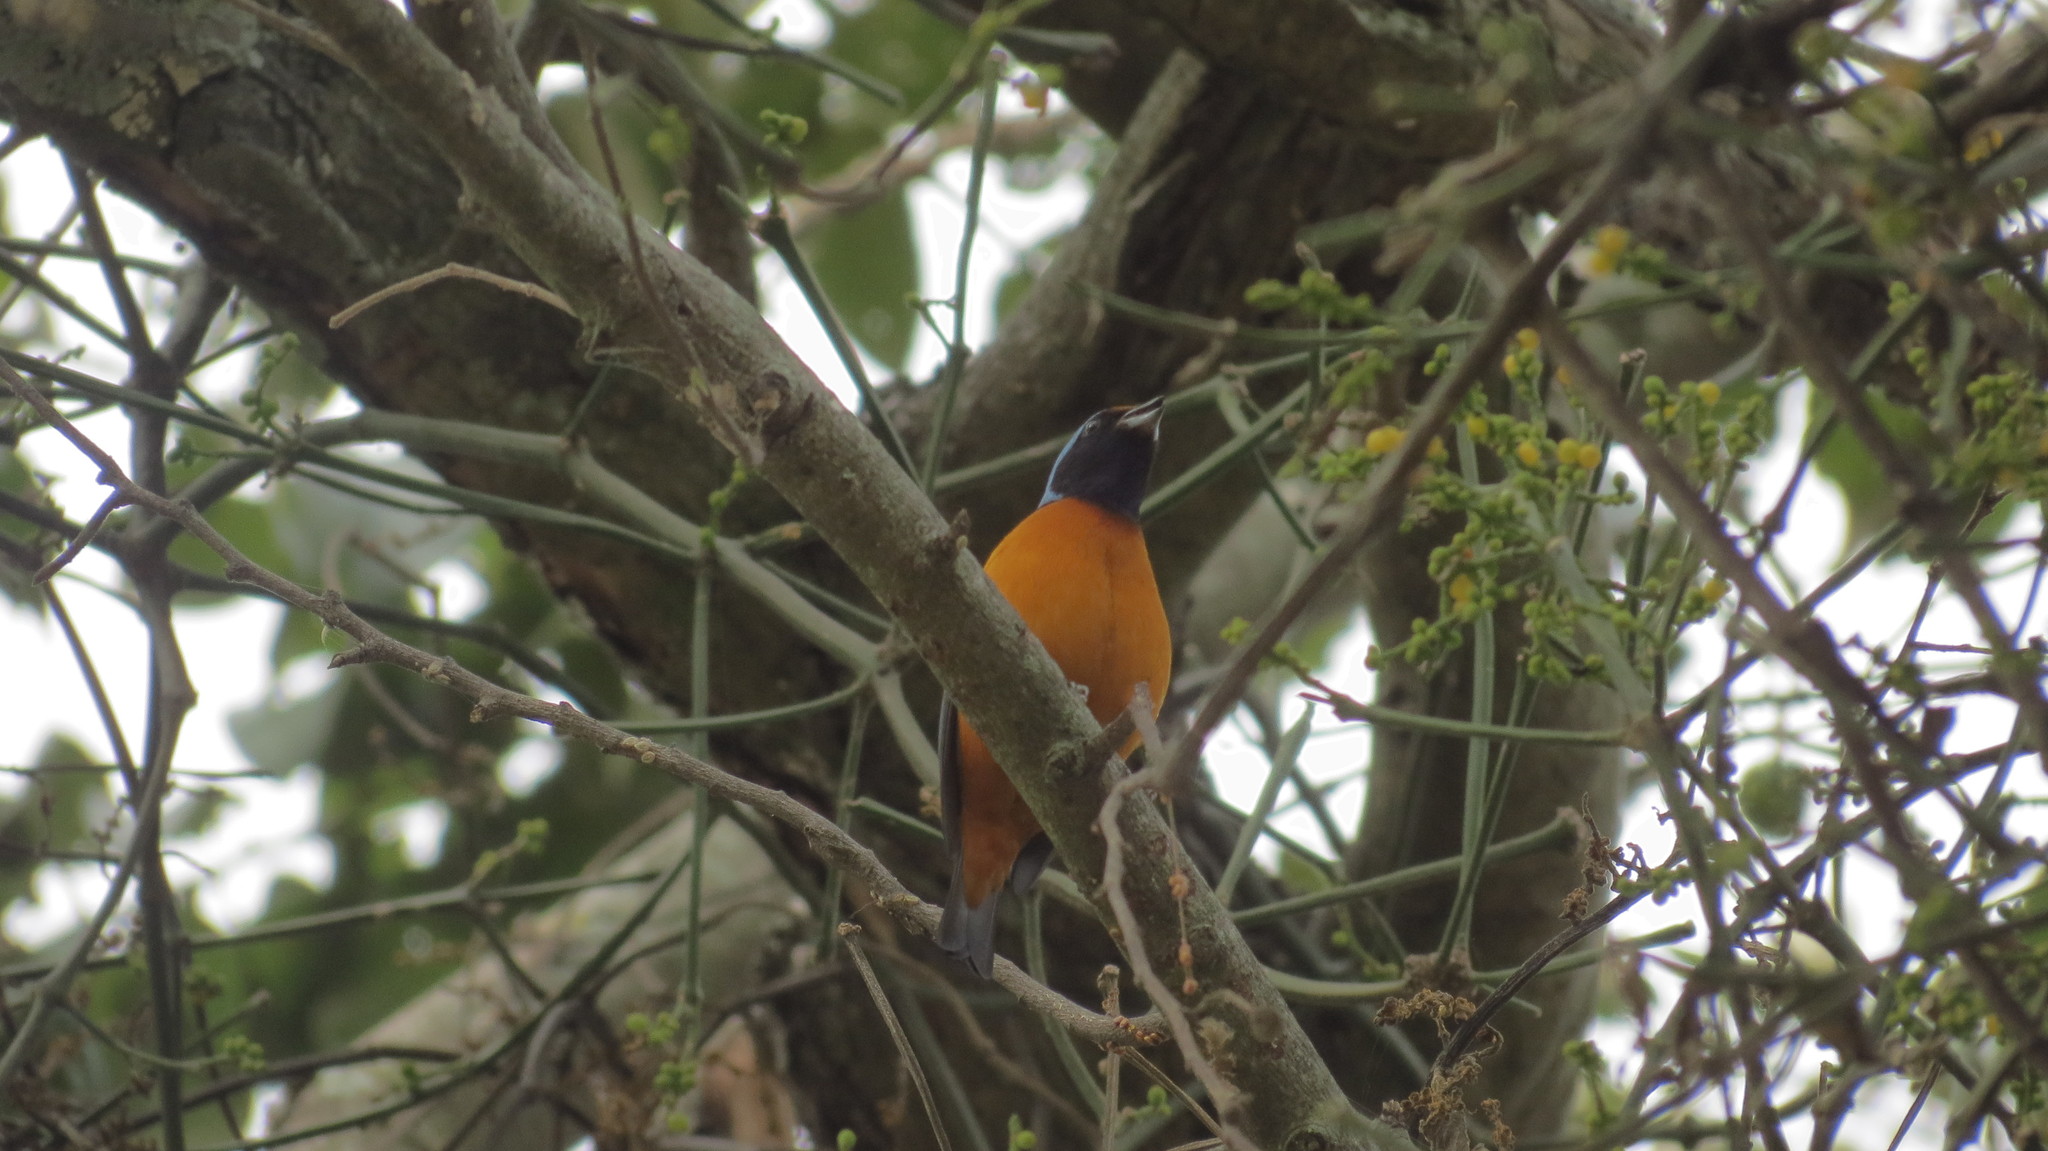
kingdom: Animalia
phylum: Chordata
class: Aves
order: Passeriformes
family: Fringillidae
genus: Euphonia
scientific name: Euphonia elegantissima
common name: Elegant euphonia
